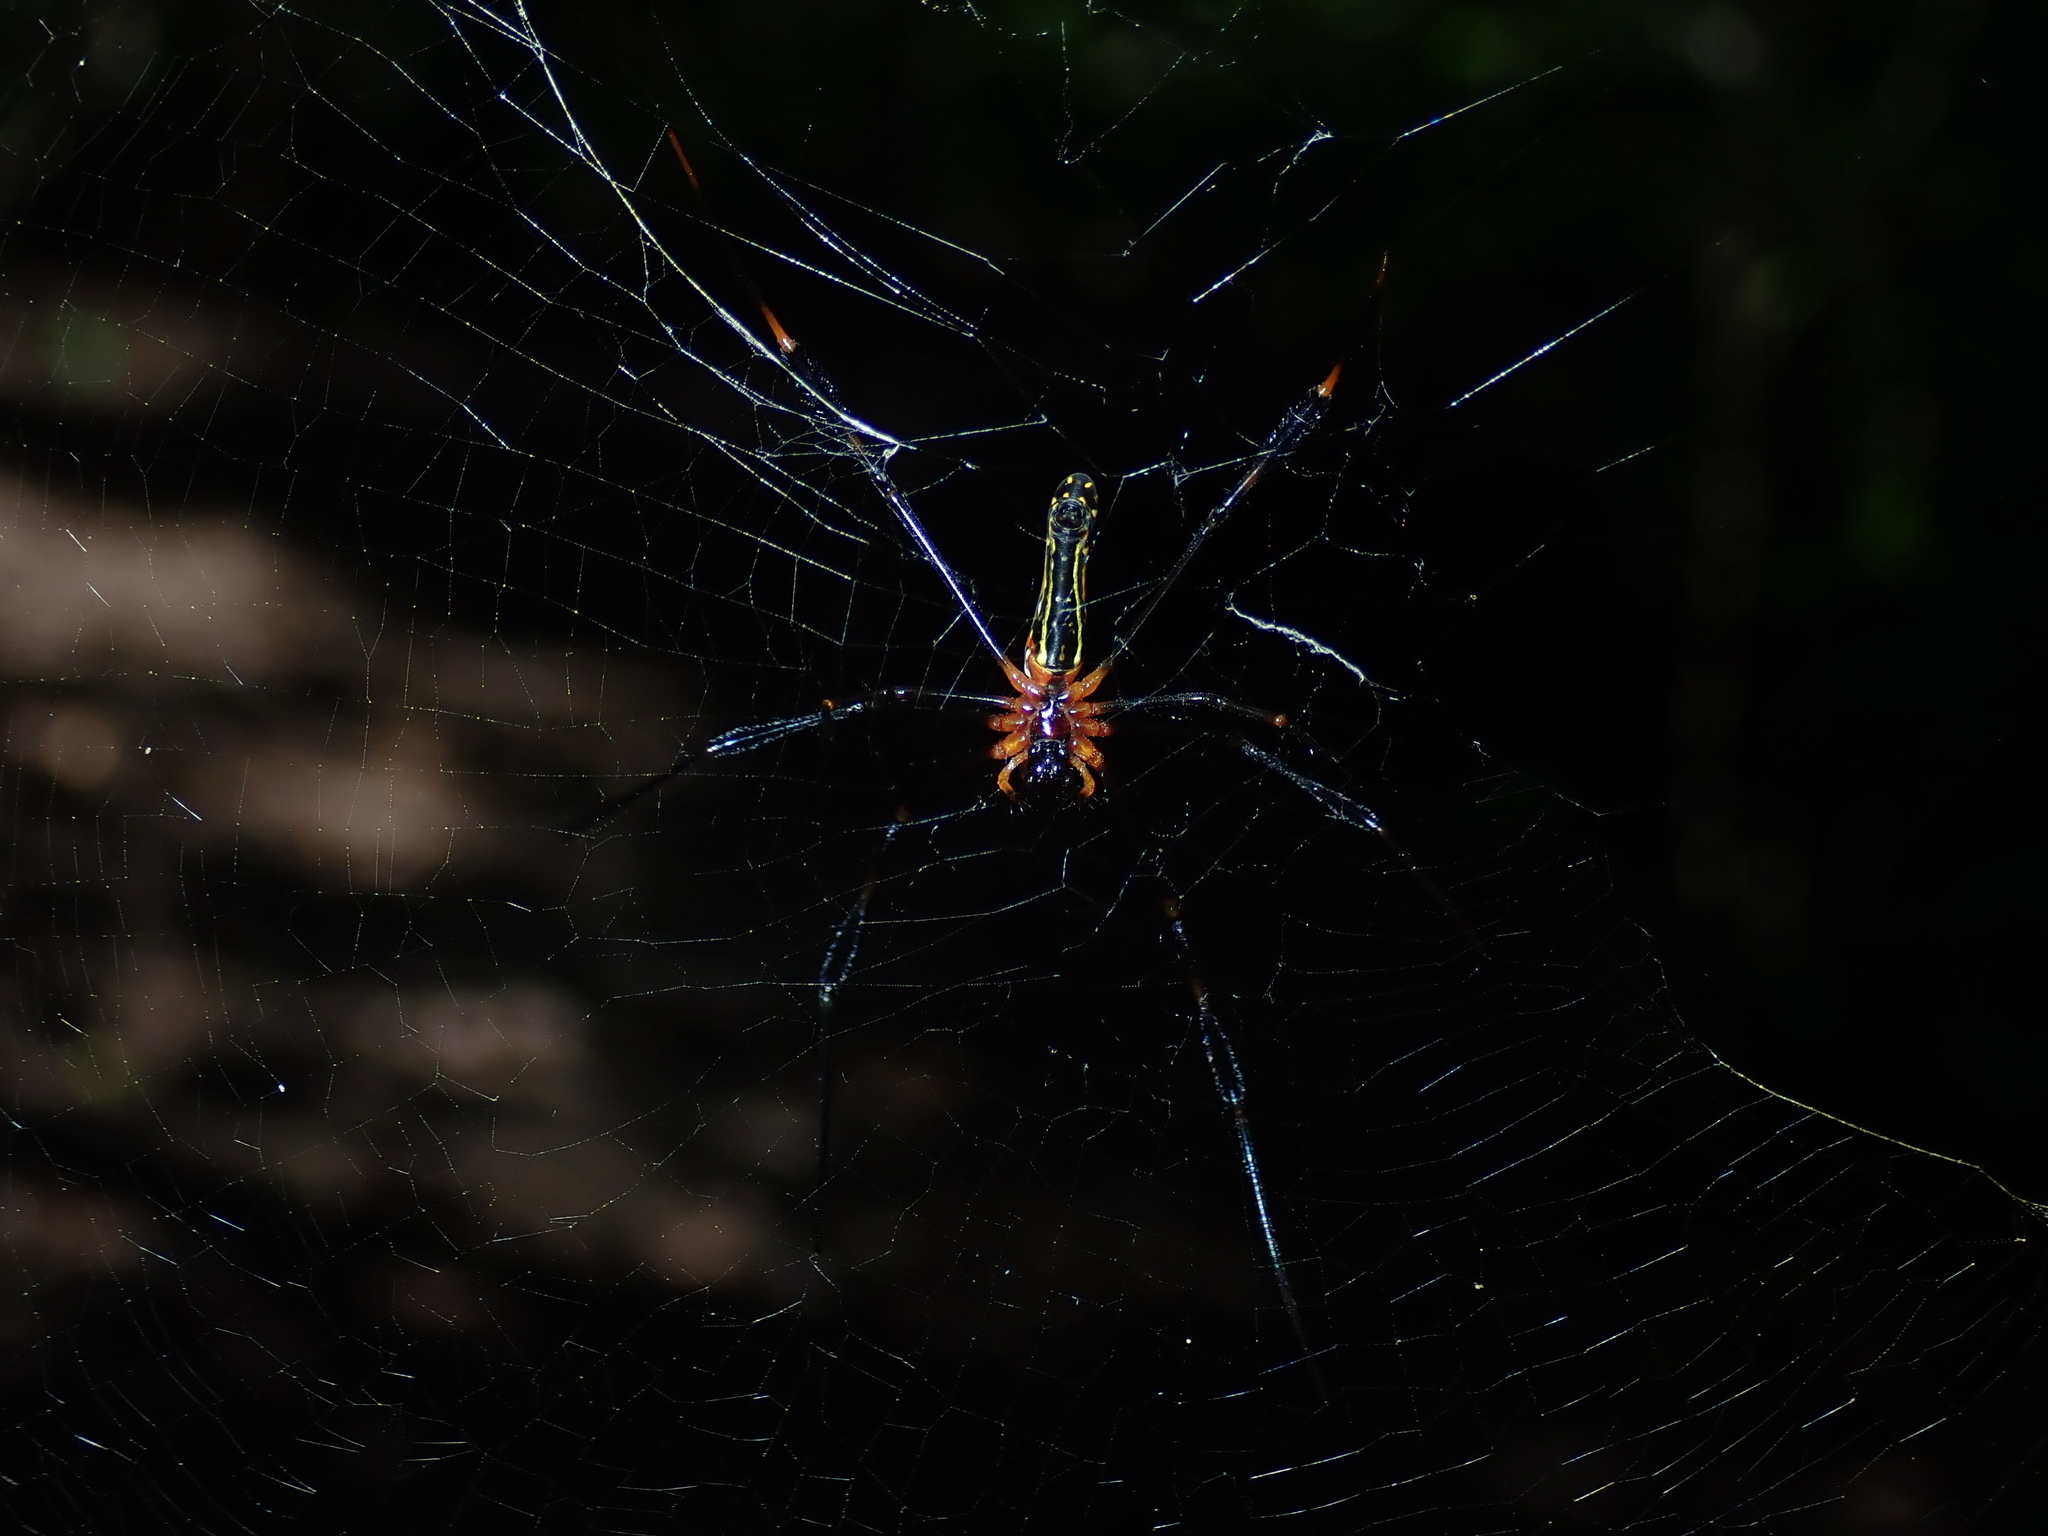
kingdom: Animalia
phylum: Arthropoda
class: Arachnida
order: Araneae
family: Araneidae
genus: Nephila
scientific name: Nephila pilipes
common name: Giant golden orb weaver
